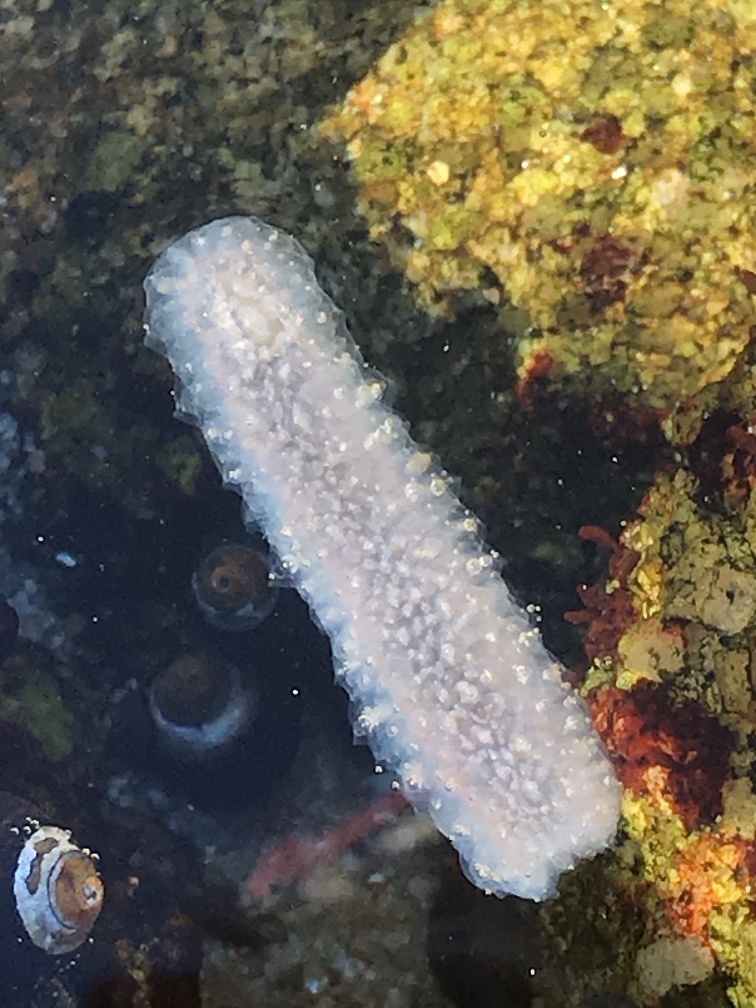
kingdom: Animalia
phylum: Chordata
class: Thaliacea
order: Pyrosomatida
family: Pyrosomatidae
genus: Pyrosoma
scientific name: Pyrosoma atlanticum
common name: Atlantic pyrosomes
